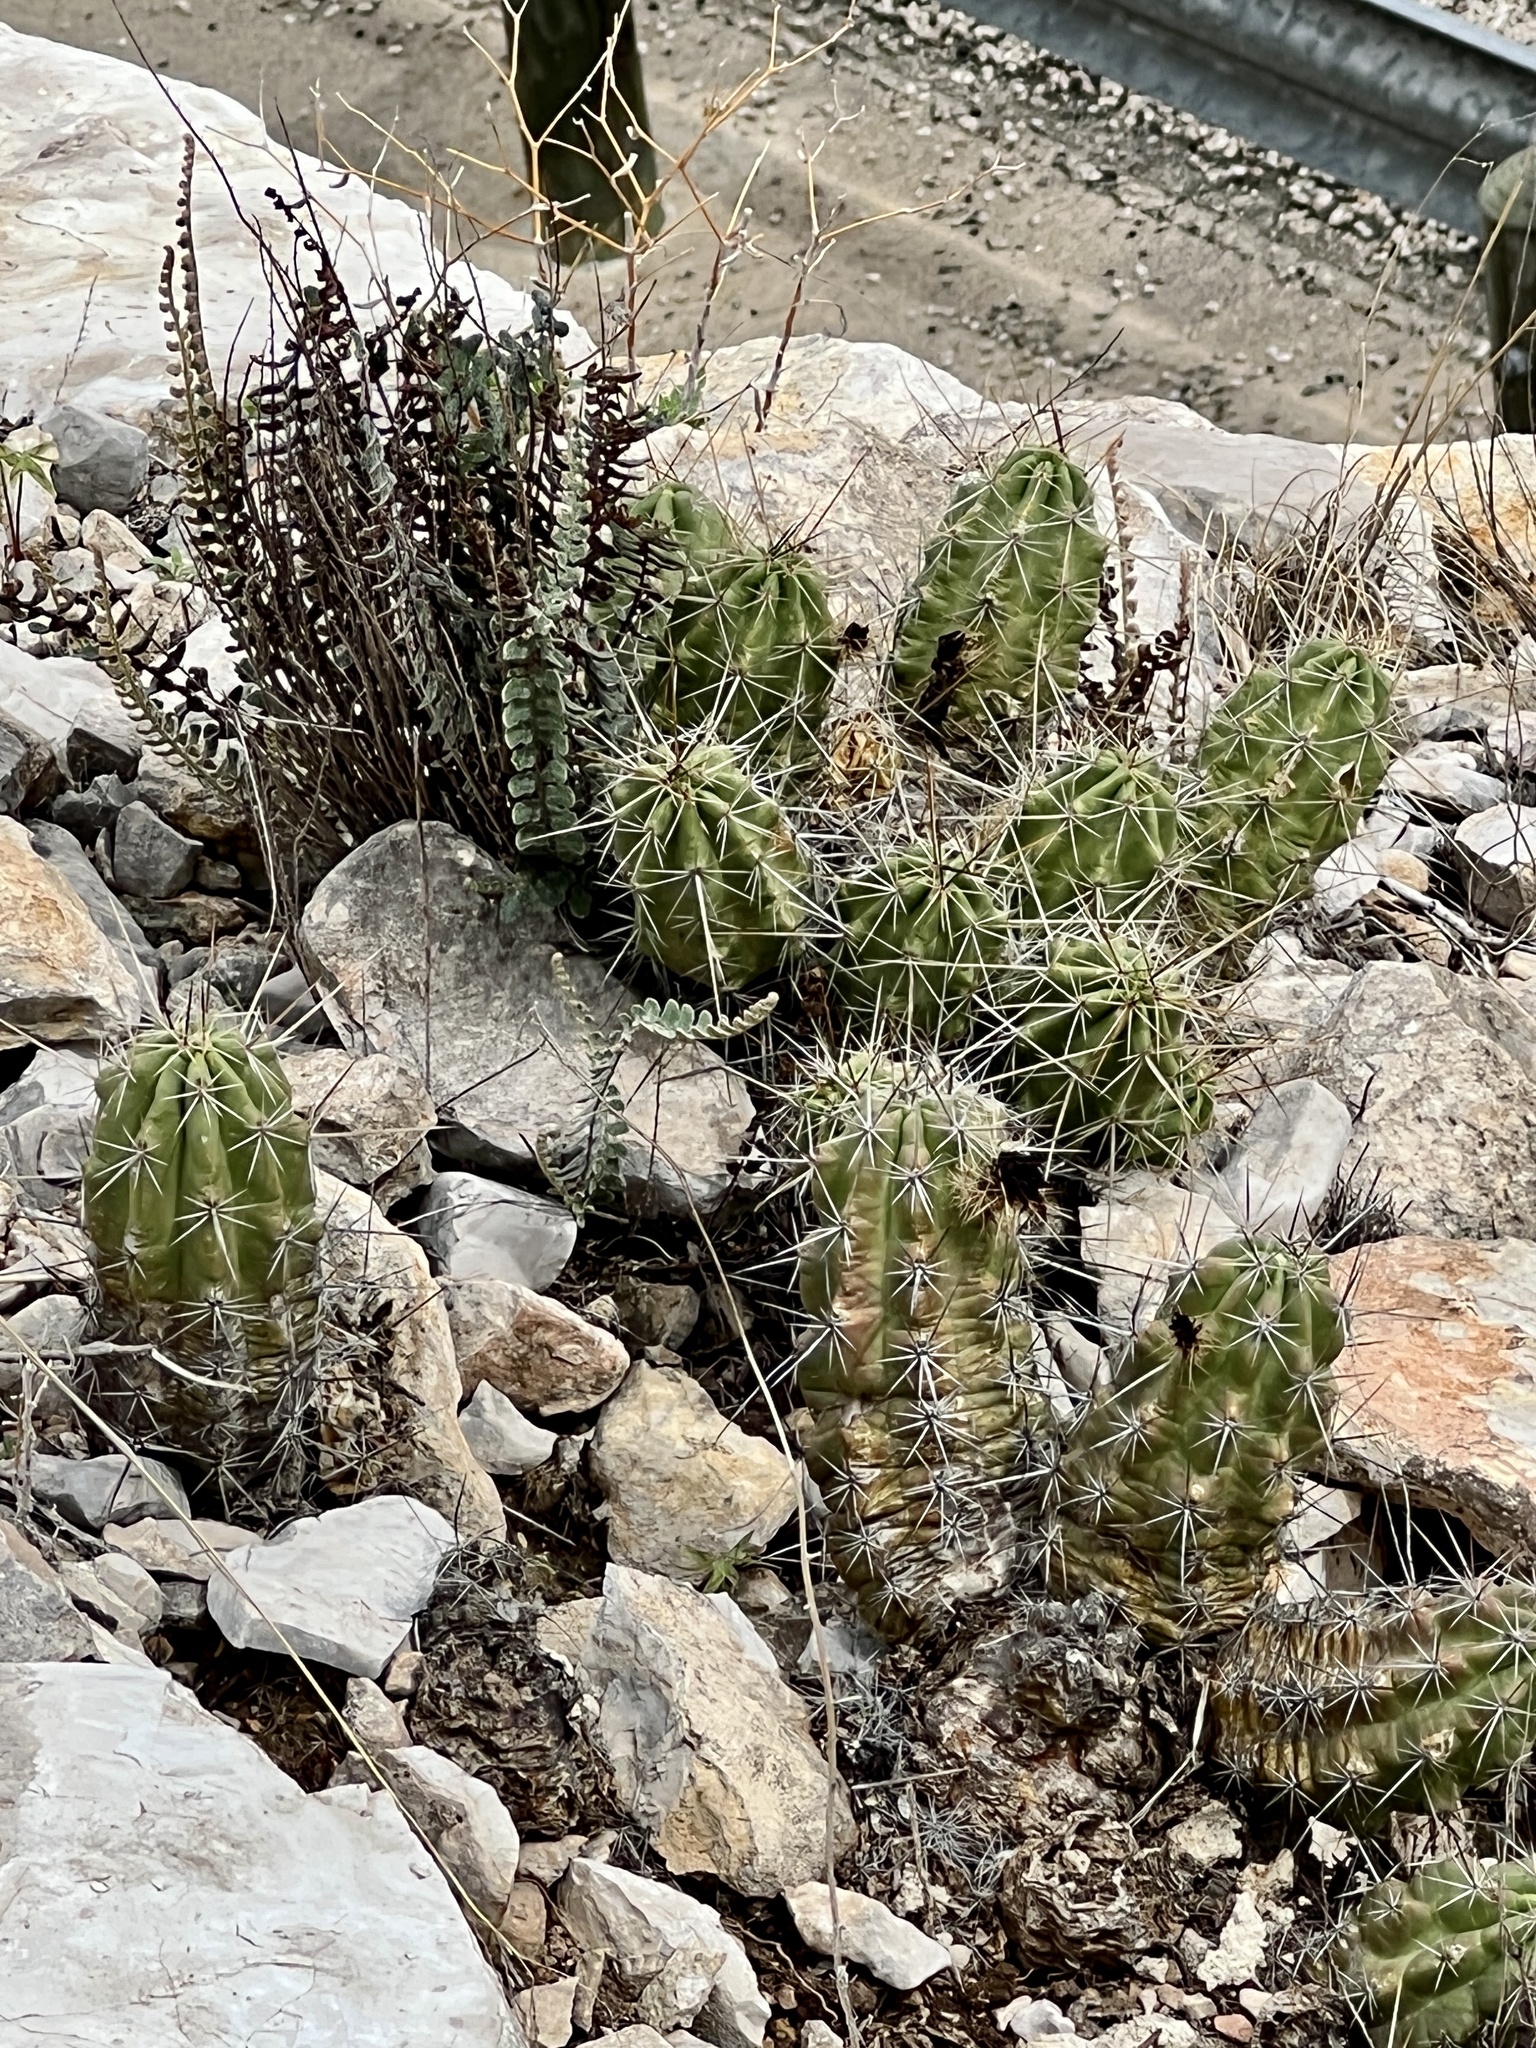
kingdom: Plantae
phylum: Tracheophyta
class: Magnoliopsida
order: Caryophyllales
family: Cactaceae
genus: Echinocereus
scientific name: Echinocereus enneacanthus
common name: Pitaya
